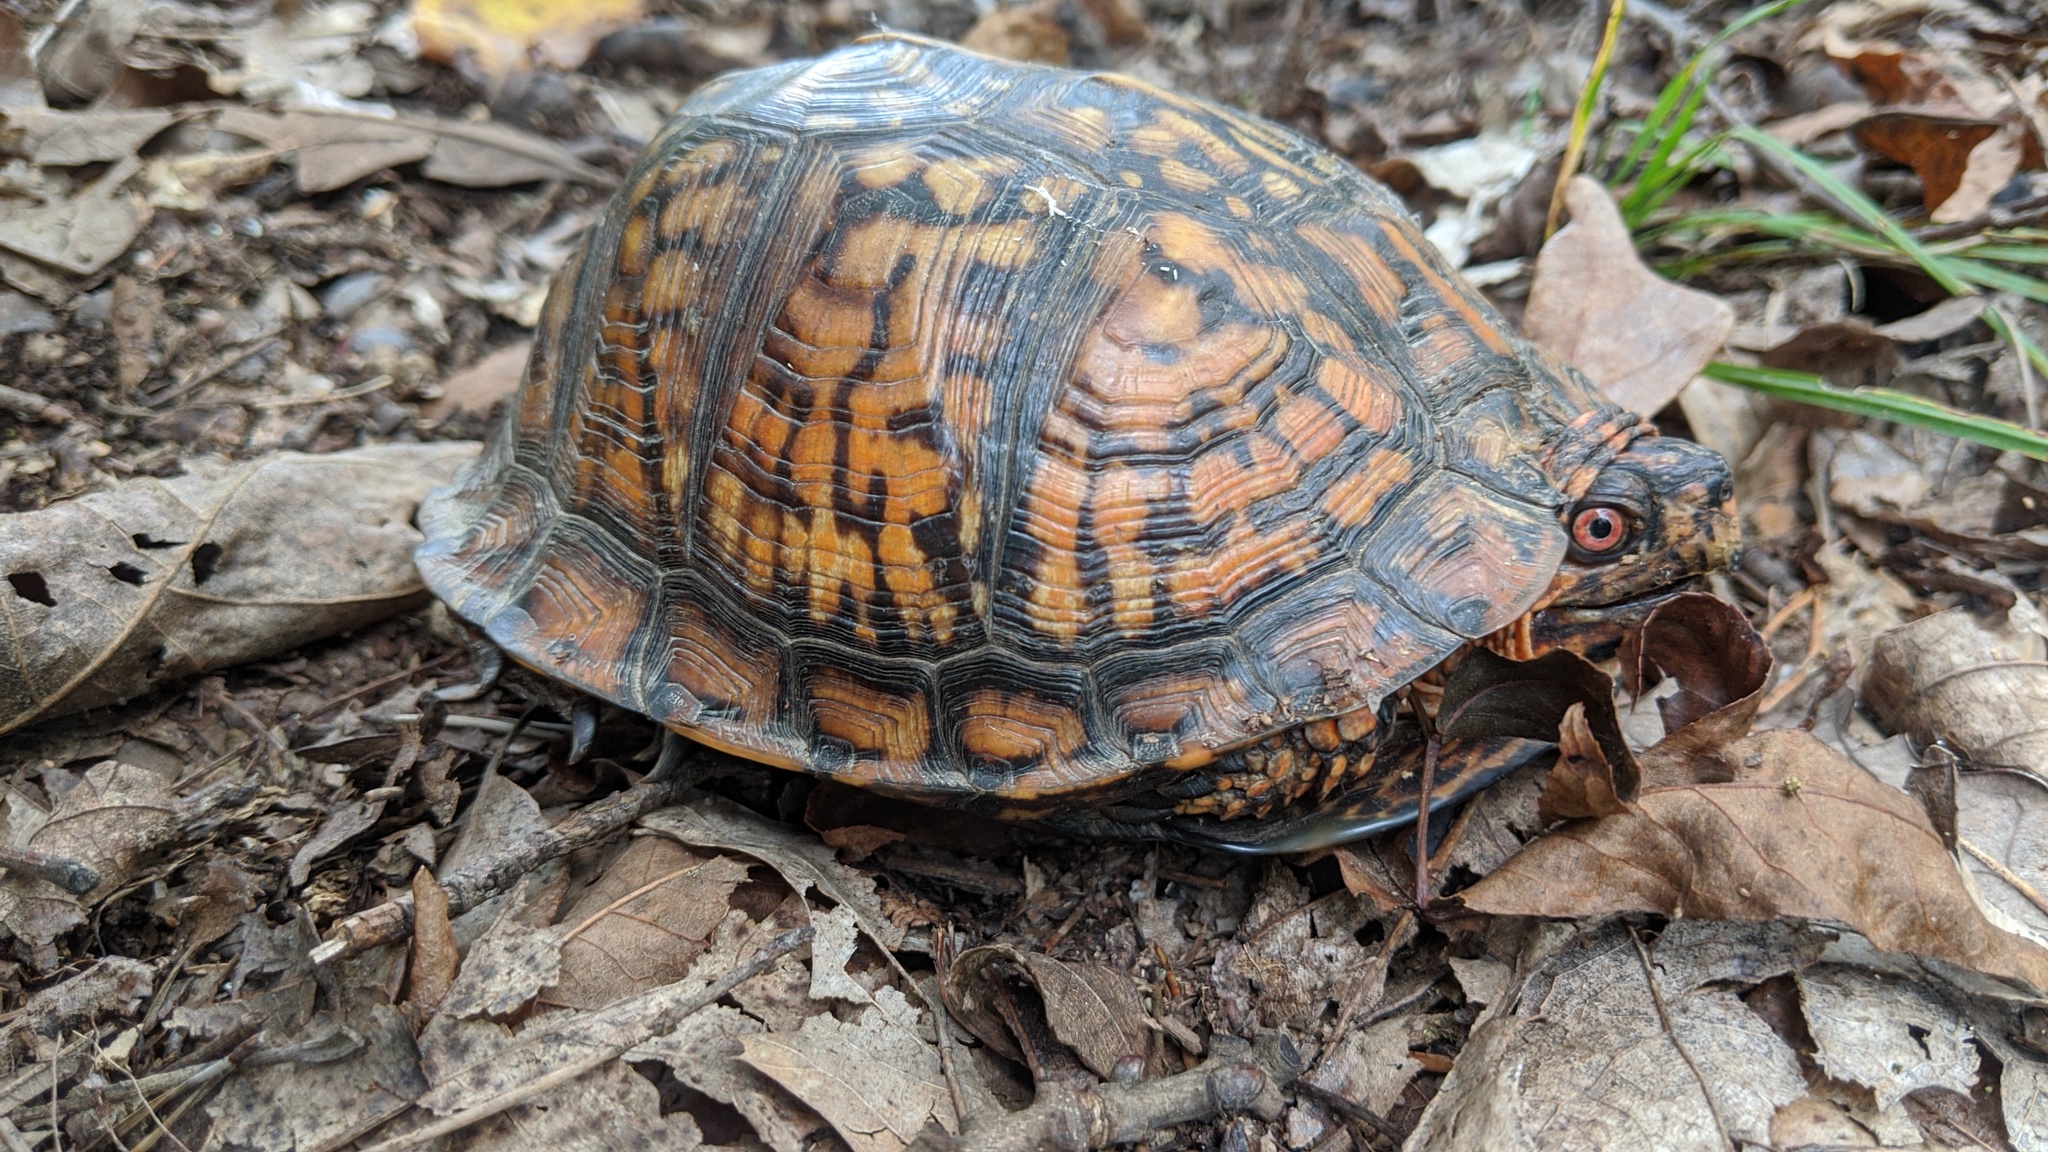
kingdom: Animalia
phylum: Chordata
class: Testudines
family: Emydidae
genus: Terrapene
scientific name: Terrapene carolina
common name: Common box turtle
